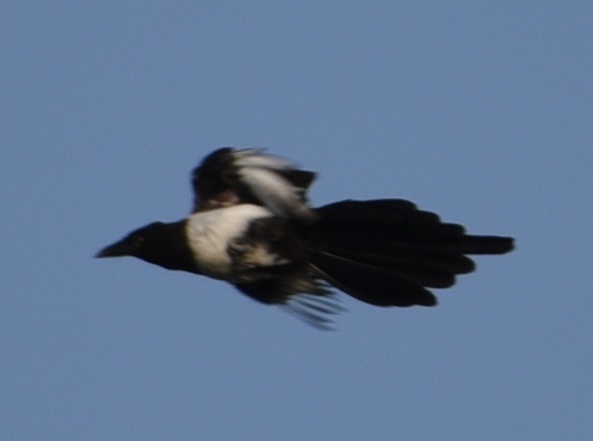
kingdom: Animalia
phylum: Chordata
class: Aves
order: Passeriformes
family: Corvidae
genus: Pica
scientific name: Pica pica
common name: Eurasian magpie
